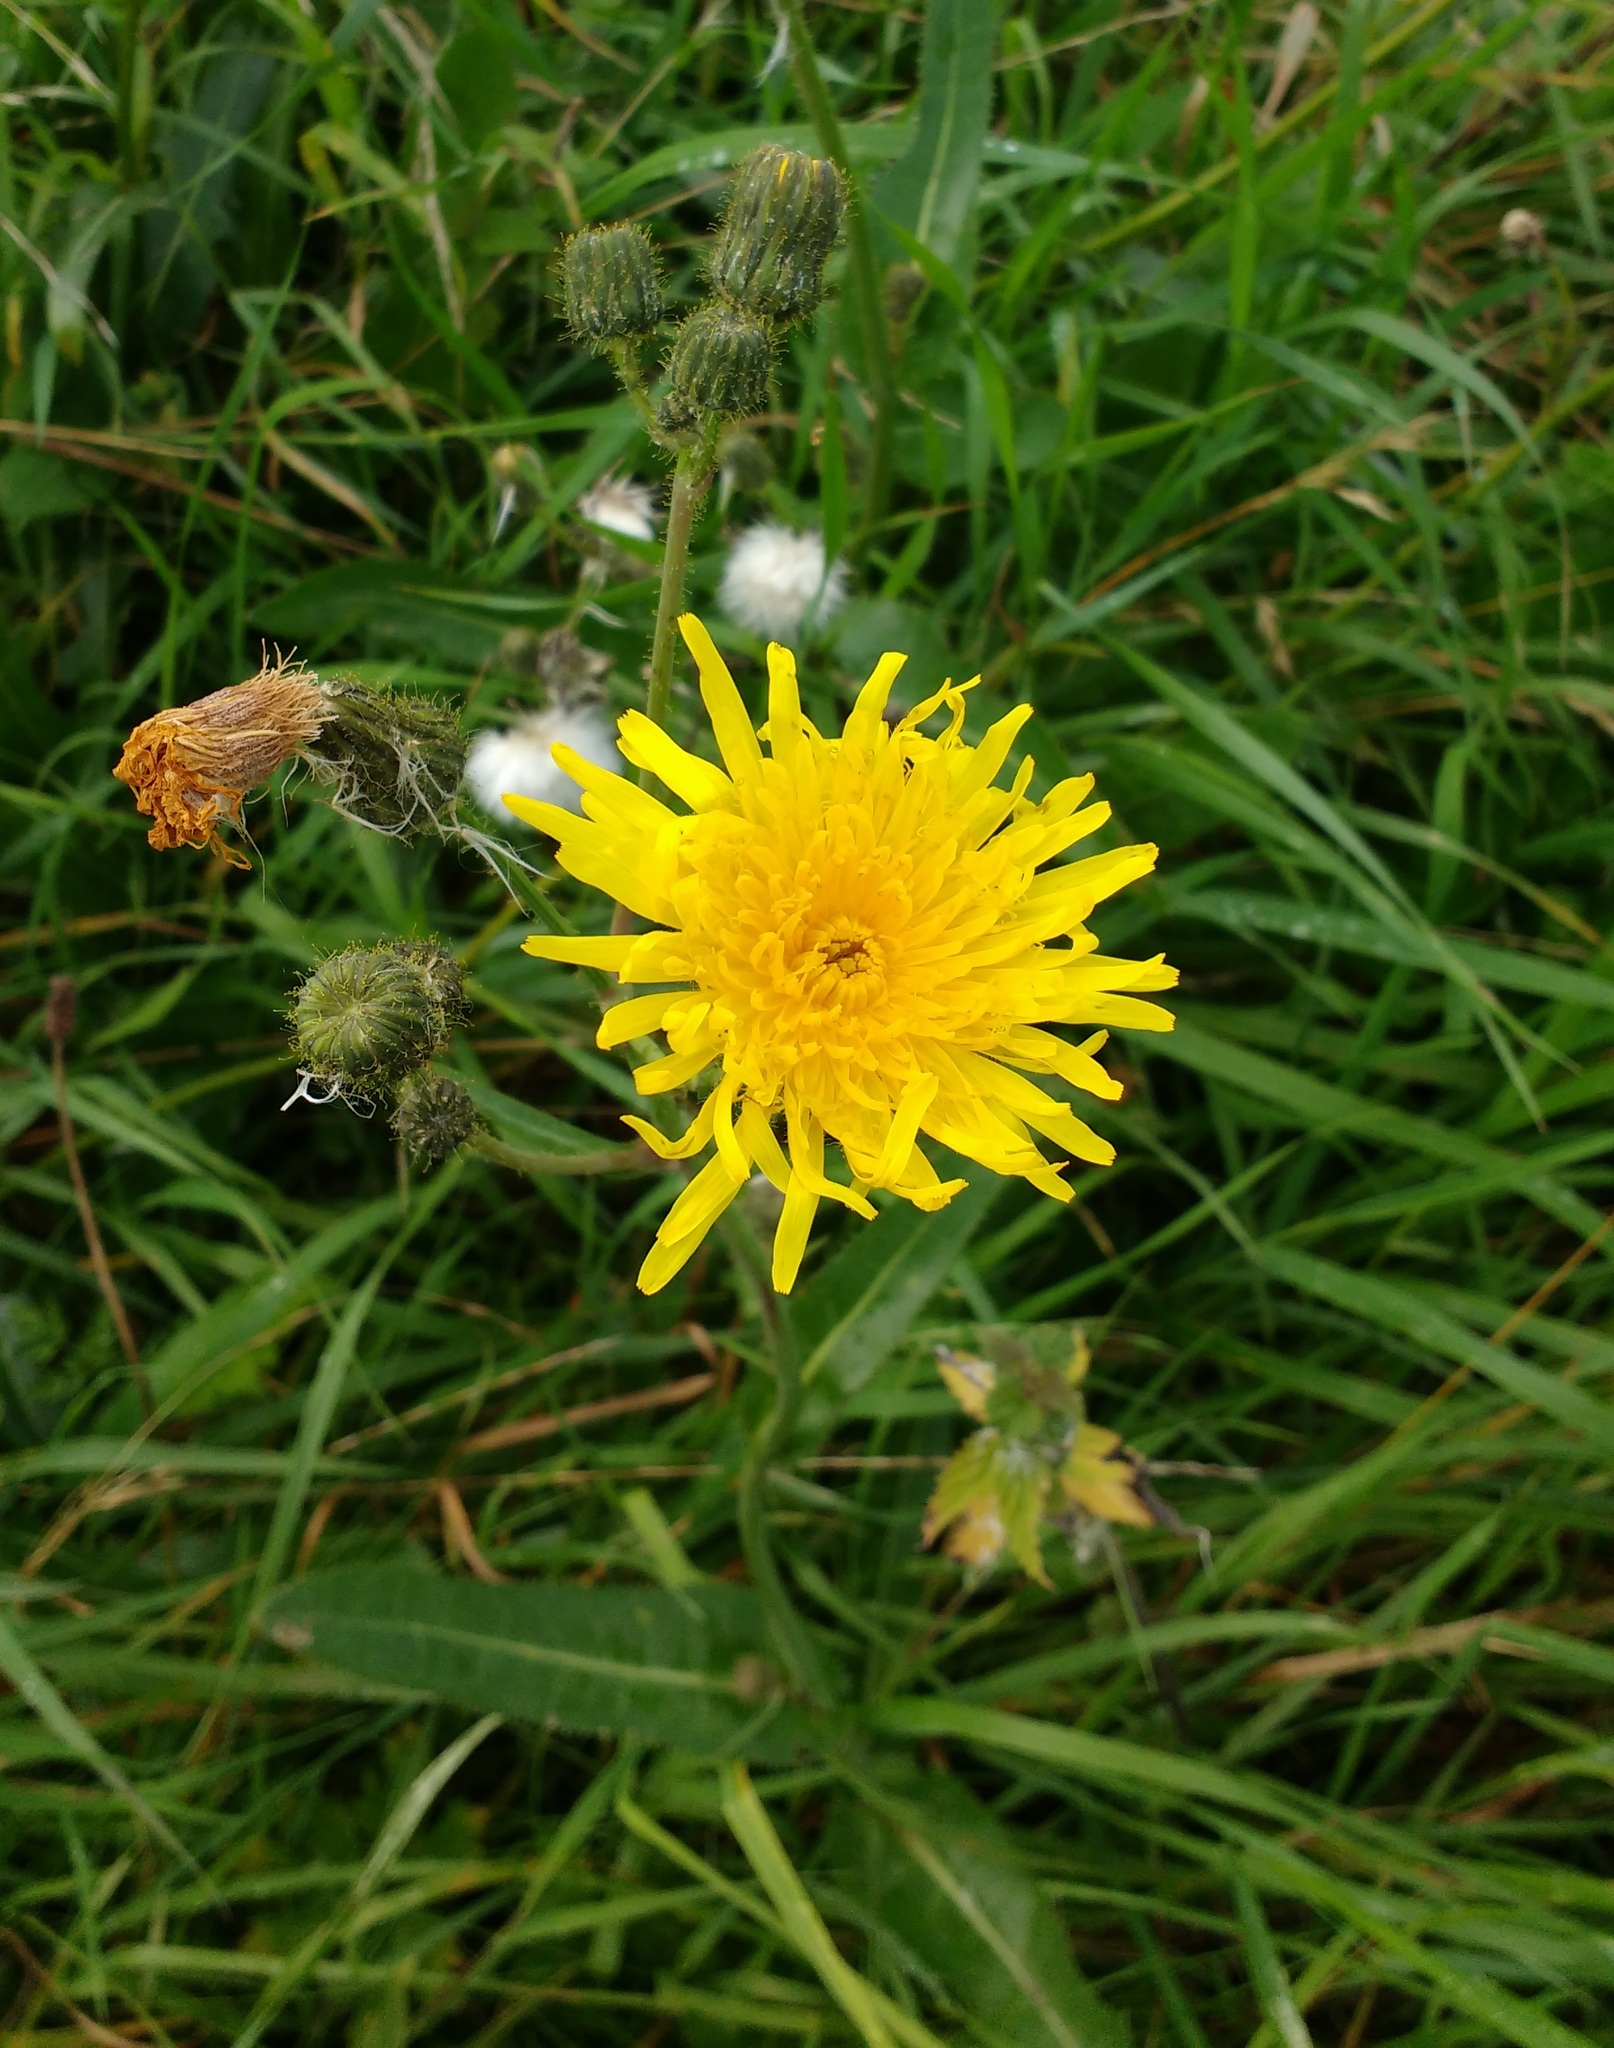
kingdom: Plantae
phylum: Tracheophyta
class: Magnoliopsida
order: Asterales
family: Asteraceae
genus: Sonchus
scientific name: Sonchus arvensis
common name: Perennial sow-thistle
